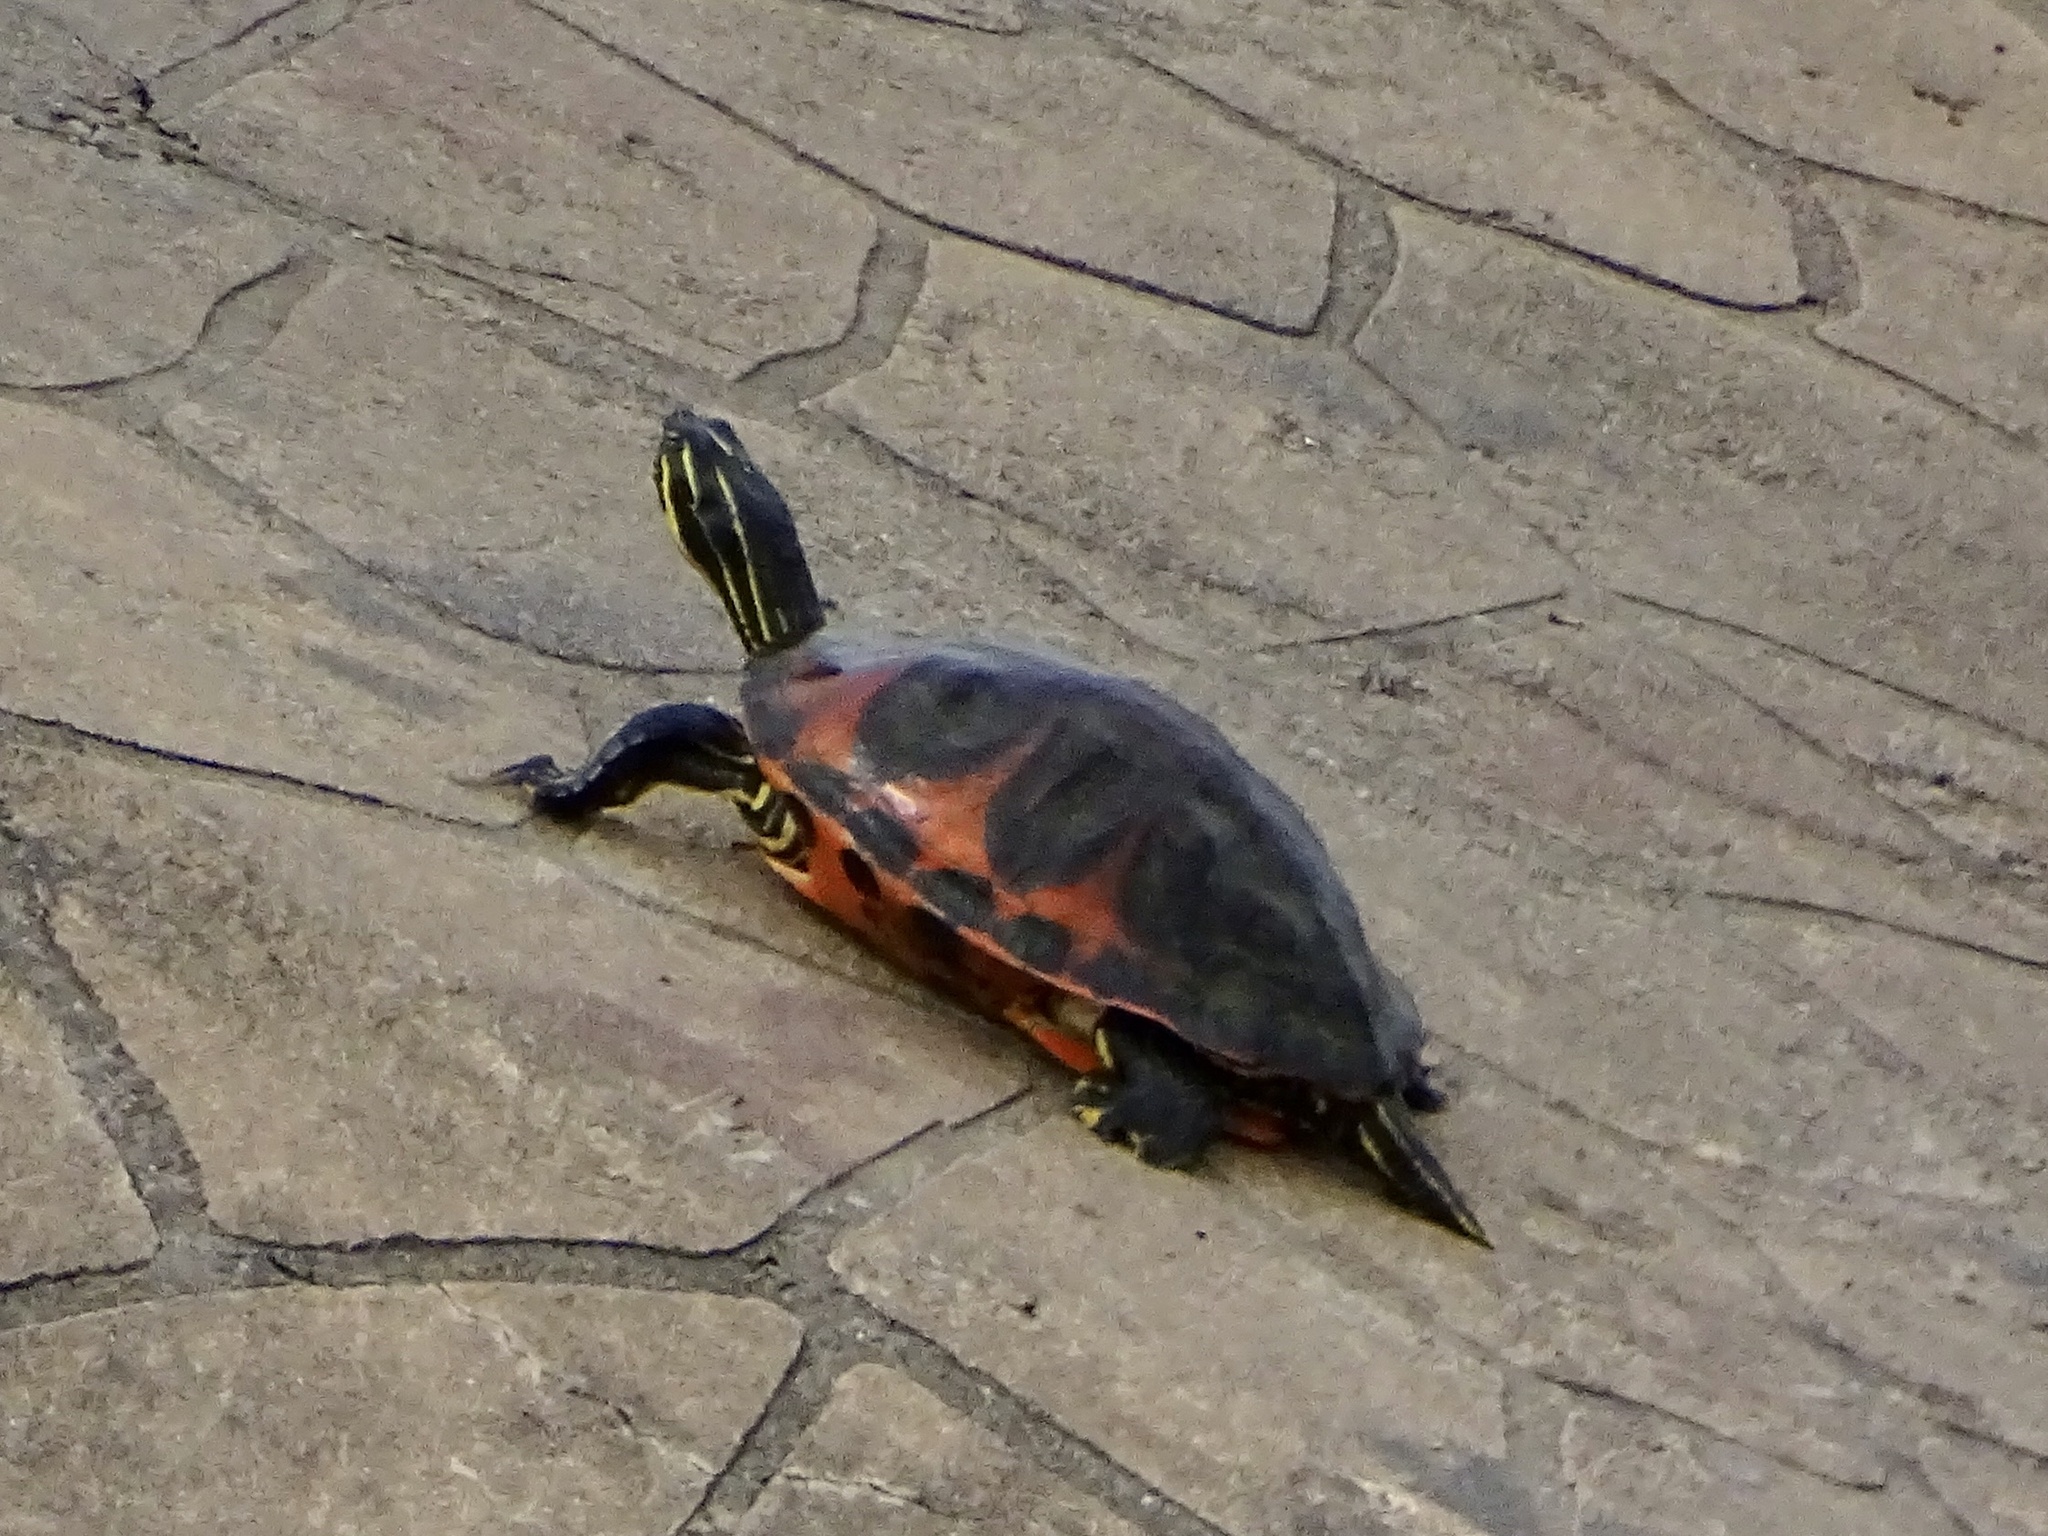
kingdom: Animalia
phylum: Chordata
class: Testudines
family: Emydidae
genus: Pseudemys
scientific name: Pseudemys nelsoni
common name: Florida red-bellied turtle
